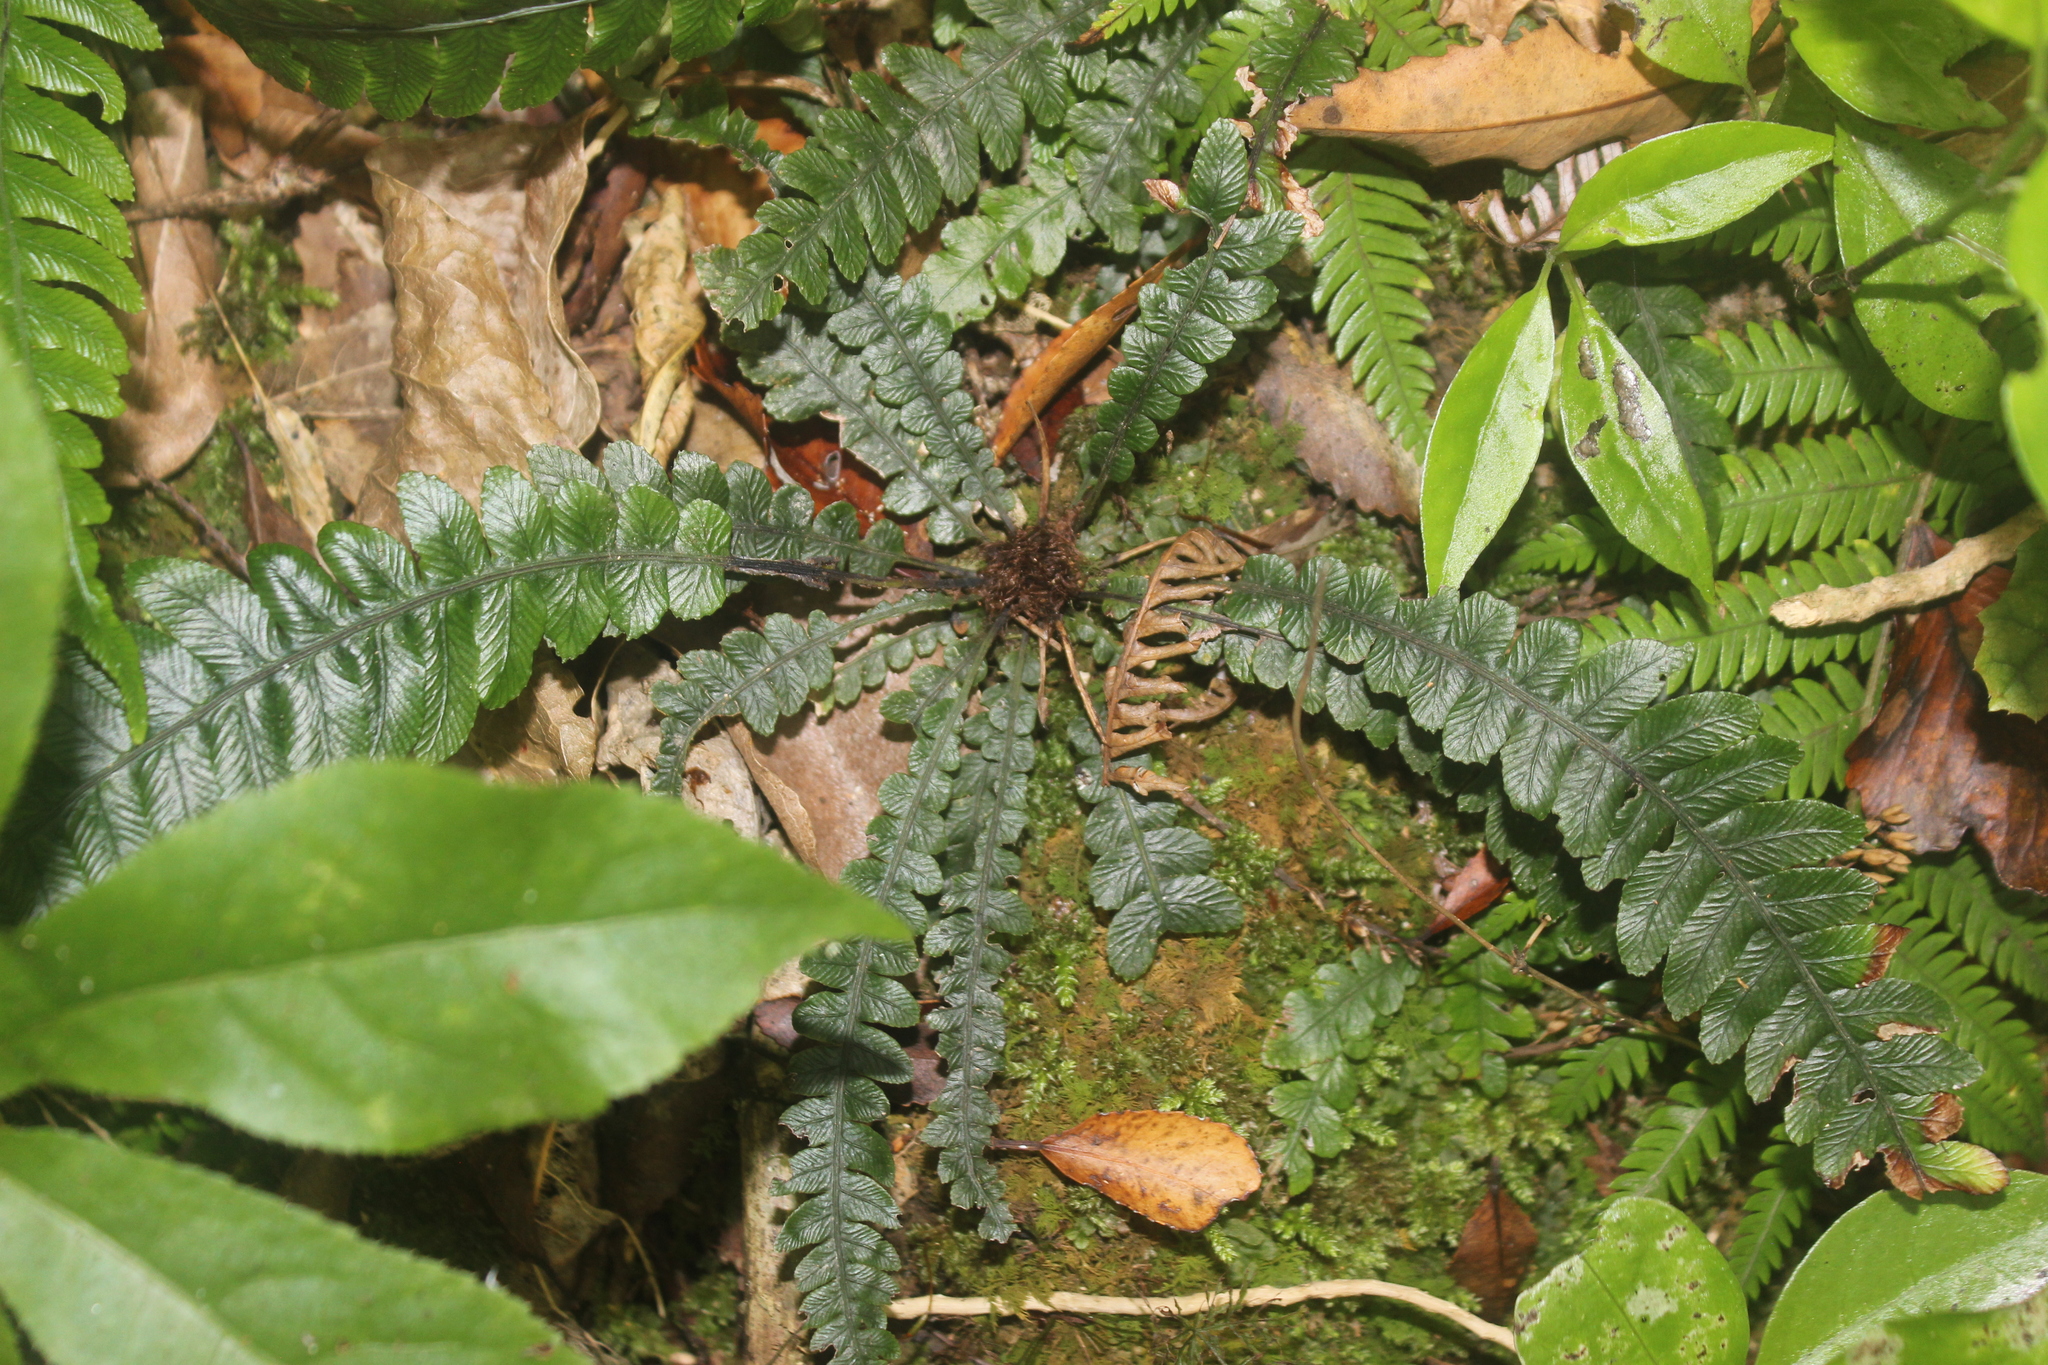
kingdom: Plantae
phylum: Tracheophyta
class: Polypodiopsida
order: Polypodiales
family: Blechnaceae
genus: Austroblechnum
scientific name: Austroblechnum membranaceum
